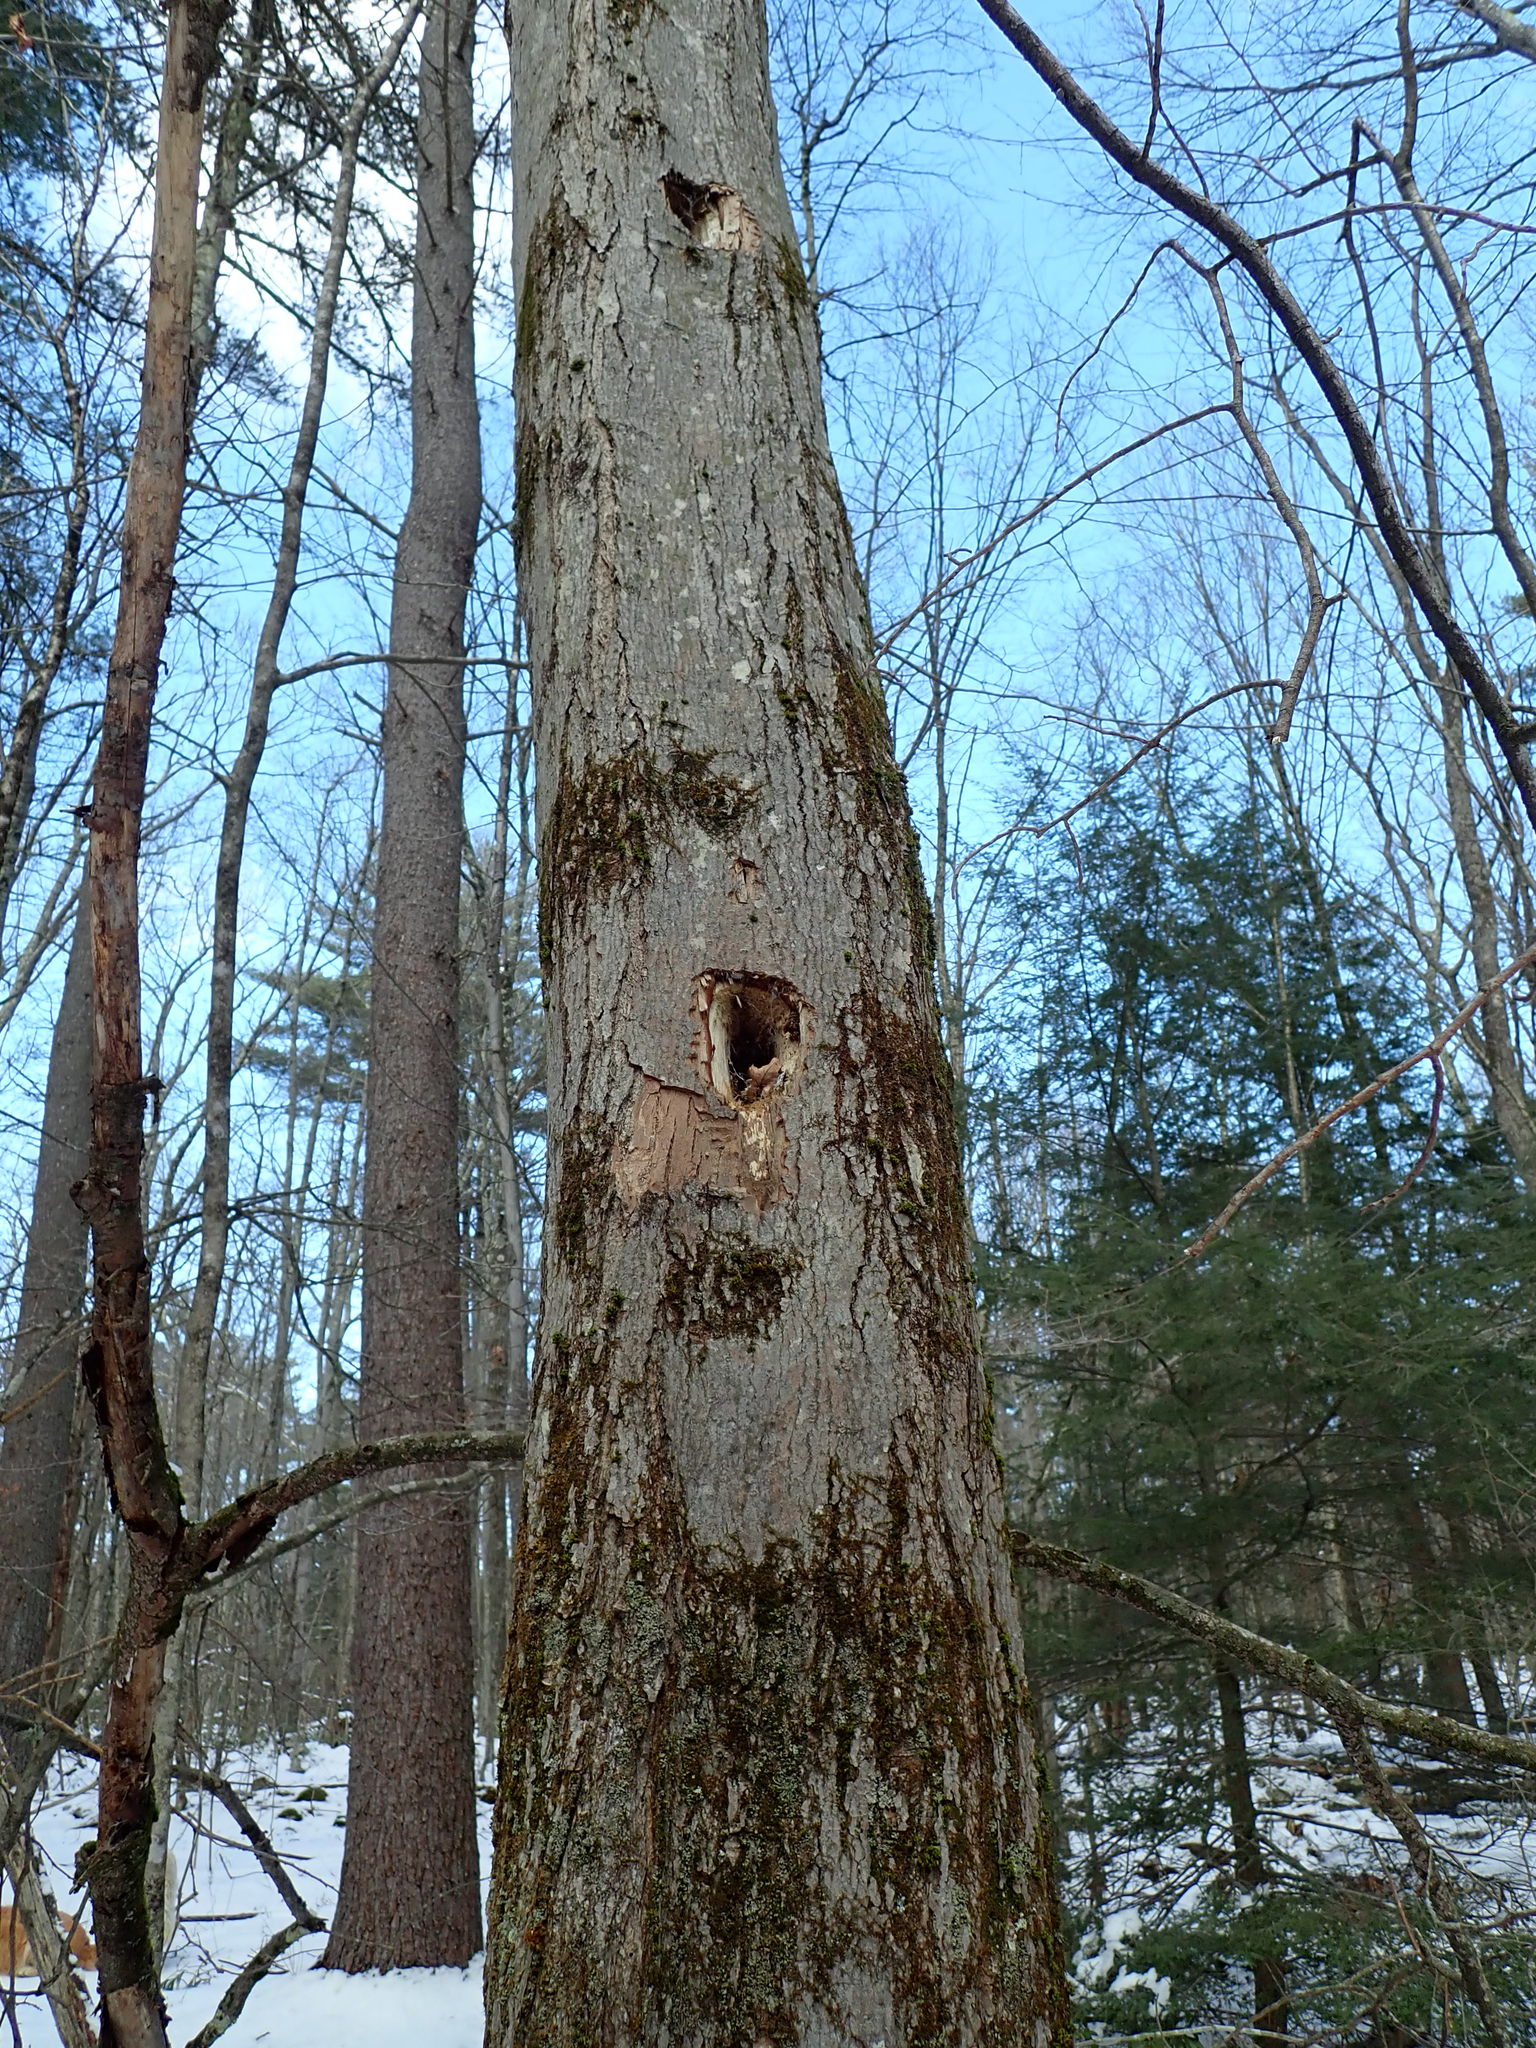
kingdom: Animalia
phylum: Chordata
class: Aves
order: Piciformes
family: Picidae
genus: Dryocopus
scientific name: Dryocopus pileatus
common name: Pileated woodpecker
